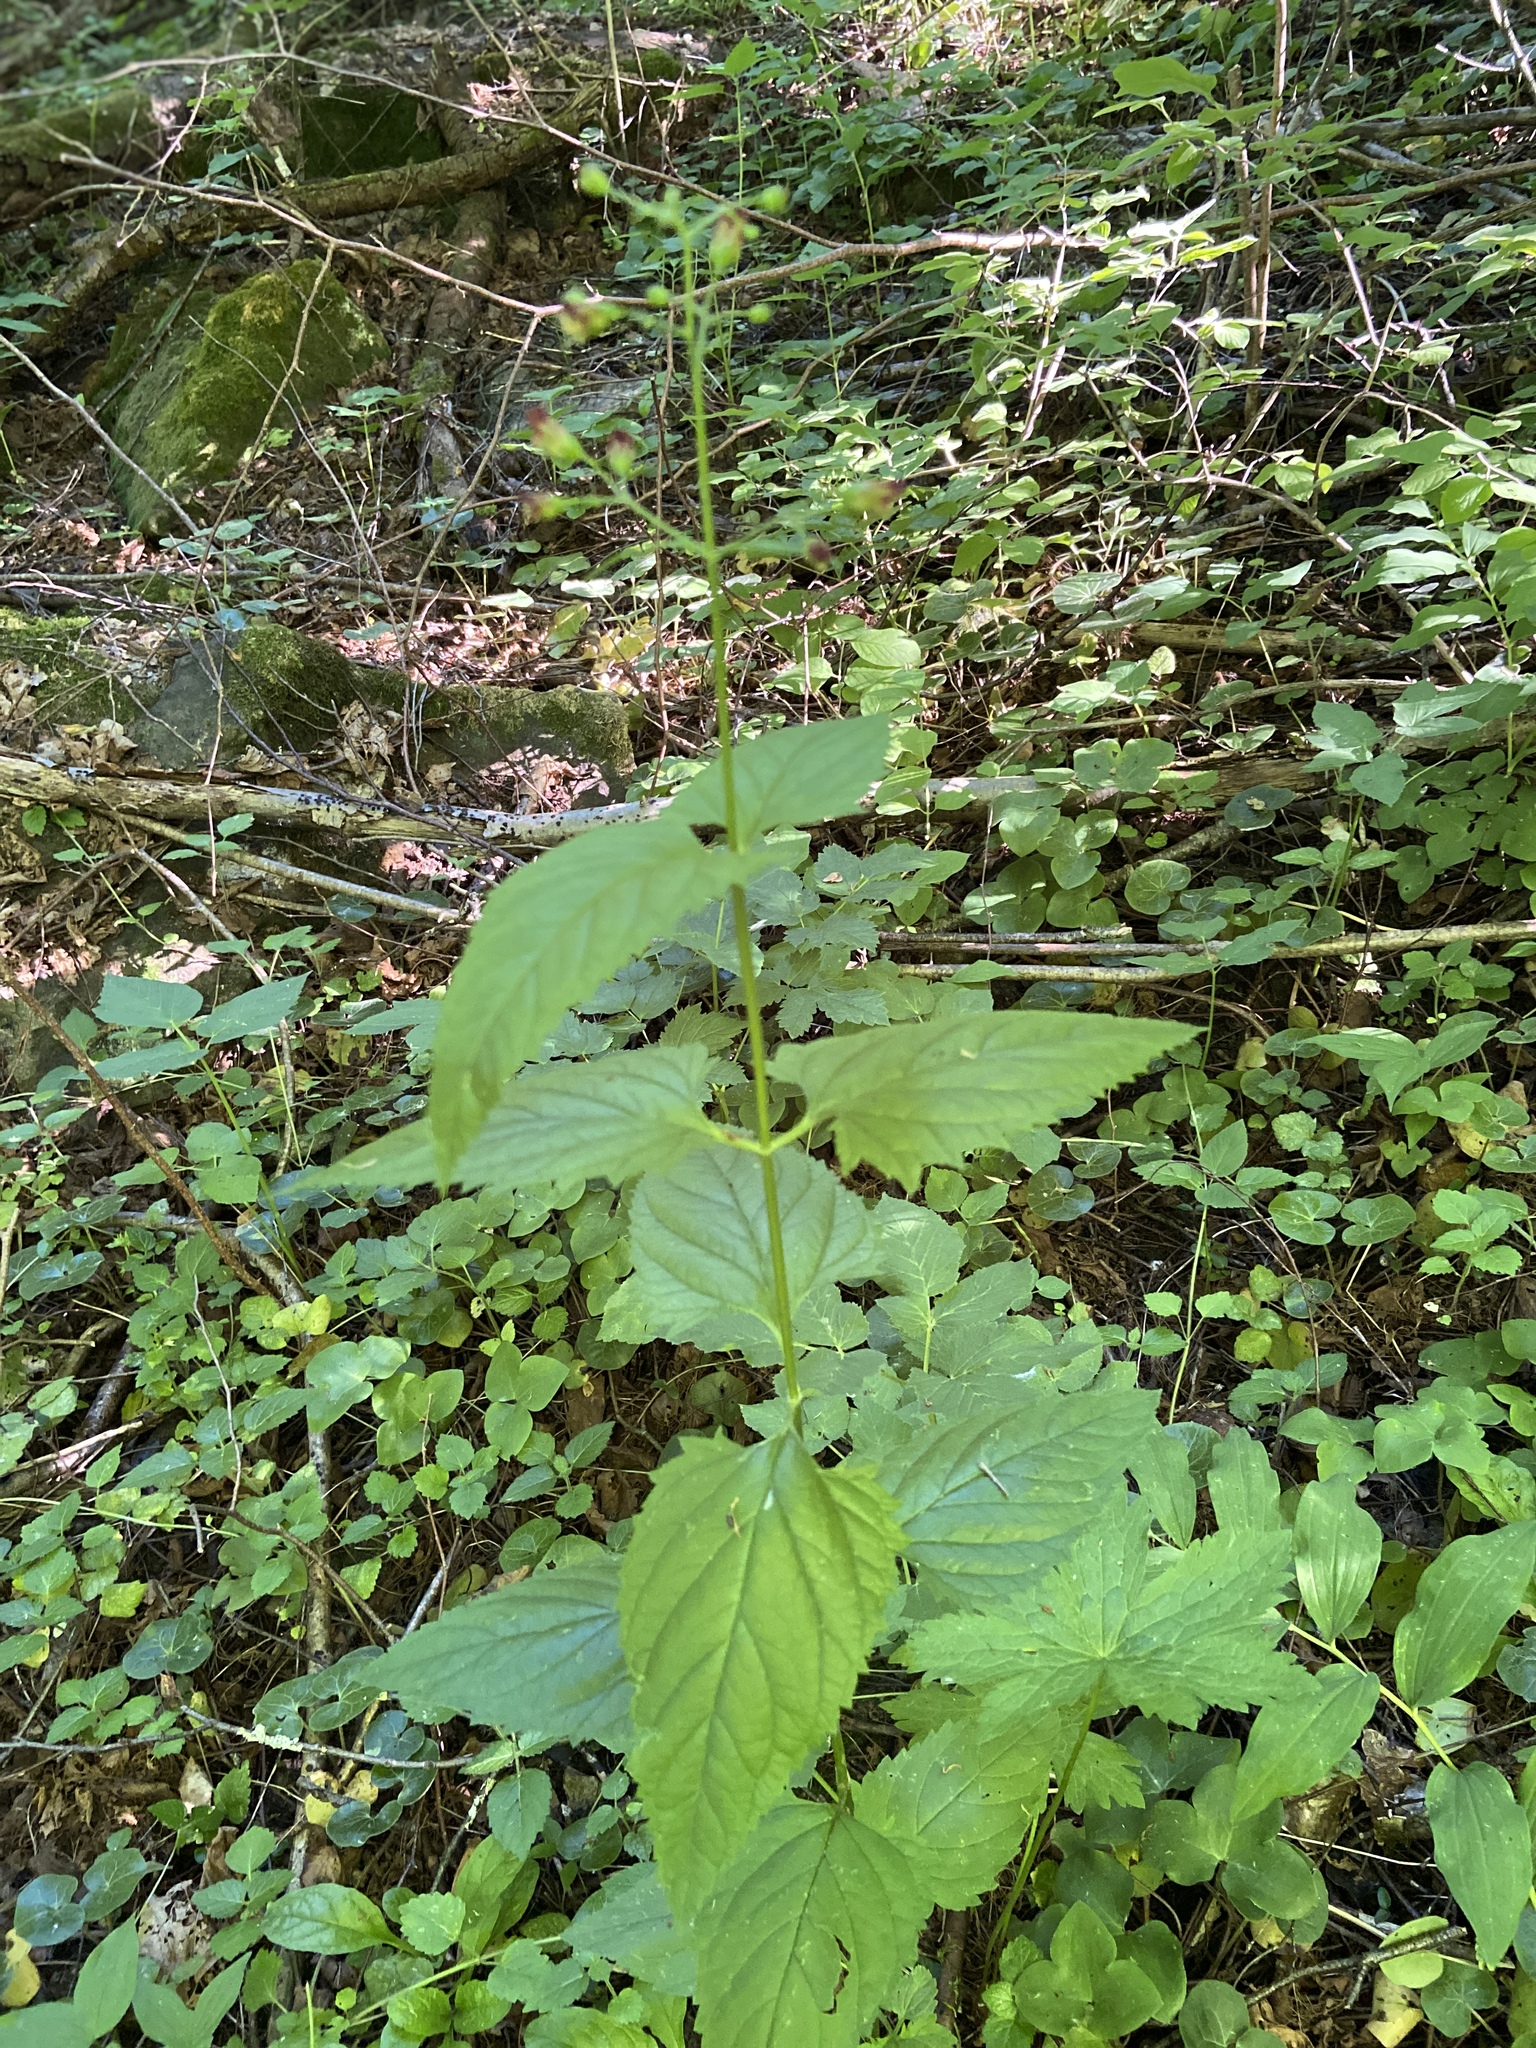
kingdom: Plantae
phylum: Tracheophyta
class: Magnoliopsida
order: Lamiales
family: Scrophulariaceae
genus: Scrophularia
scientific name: Scrophularia nodosa
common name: Common figwort
